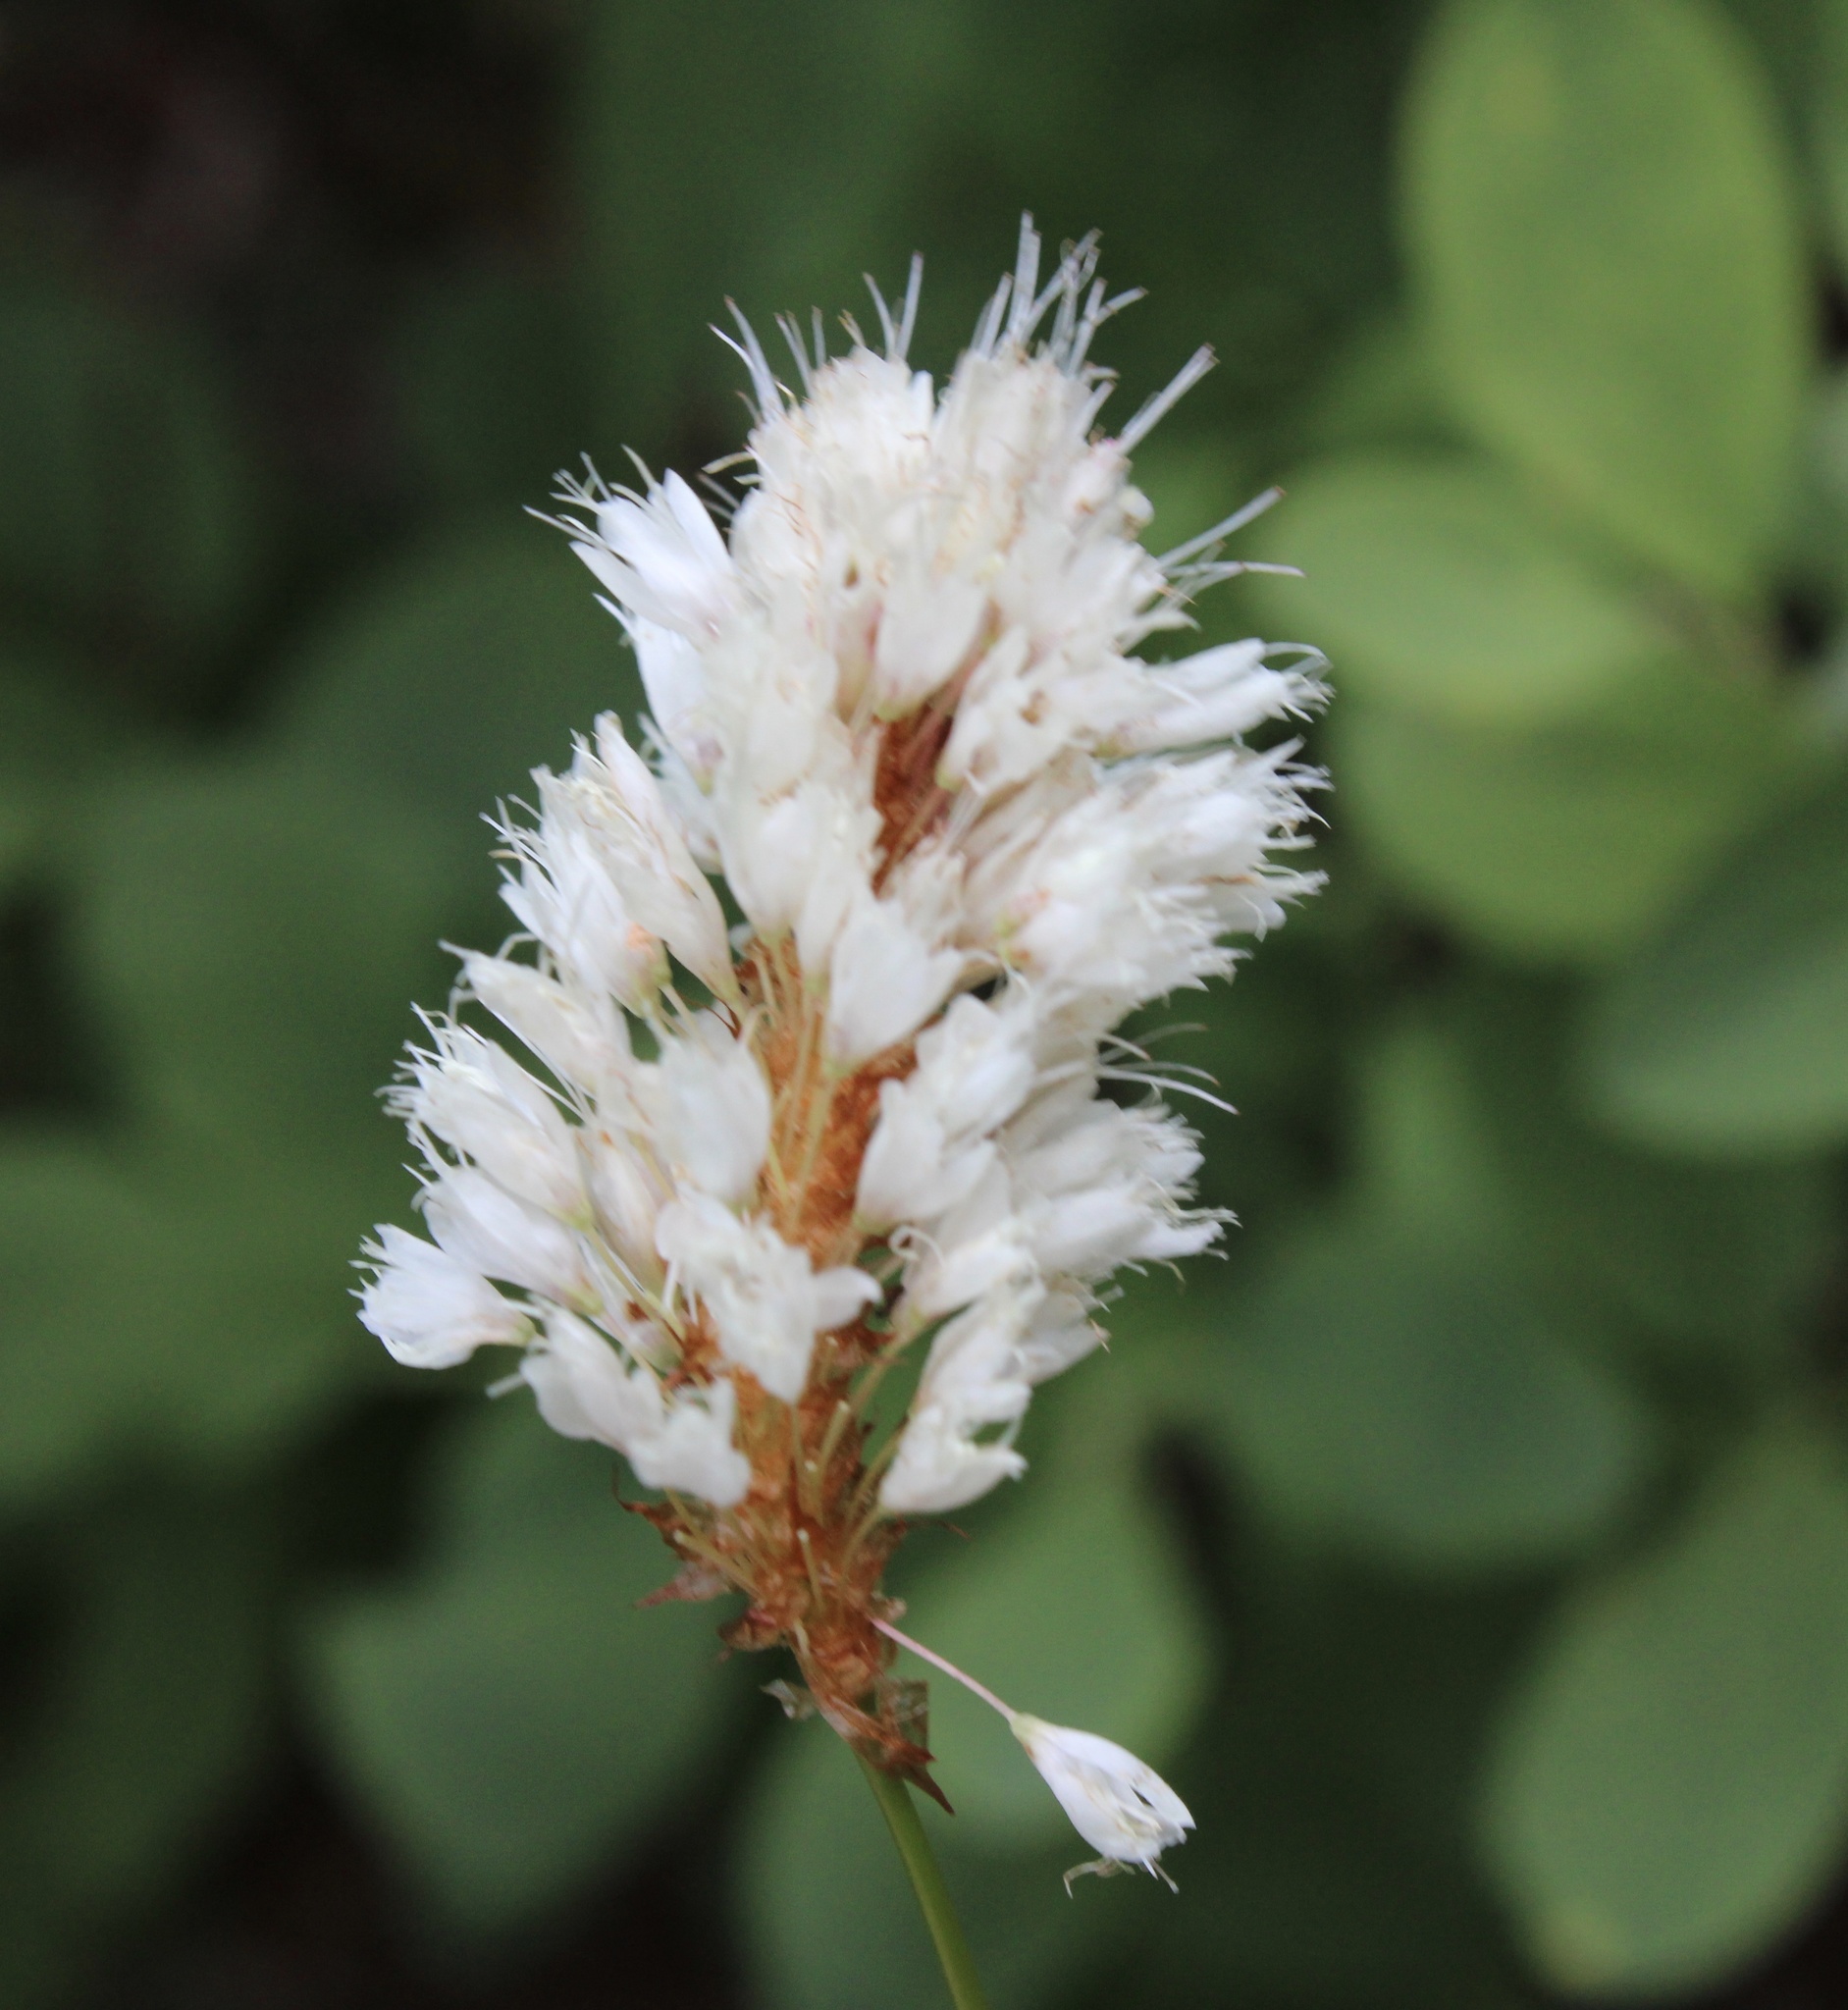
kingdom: Plantae
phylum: Tracheophyta
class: Magnoliopsida
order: Caryophyllales
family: Polygonaceae
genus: Bistorta
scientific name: Bistorta bistortoides
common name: American bistort
